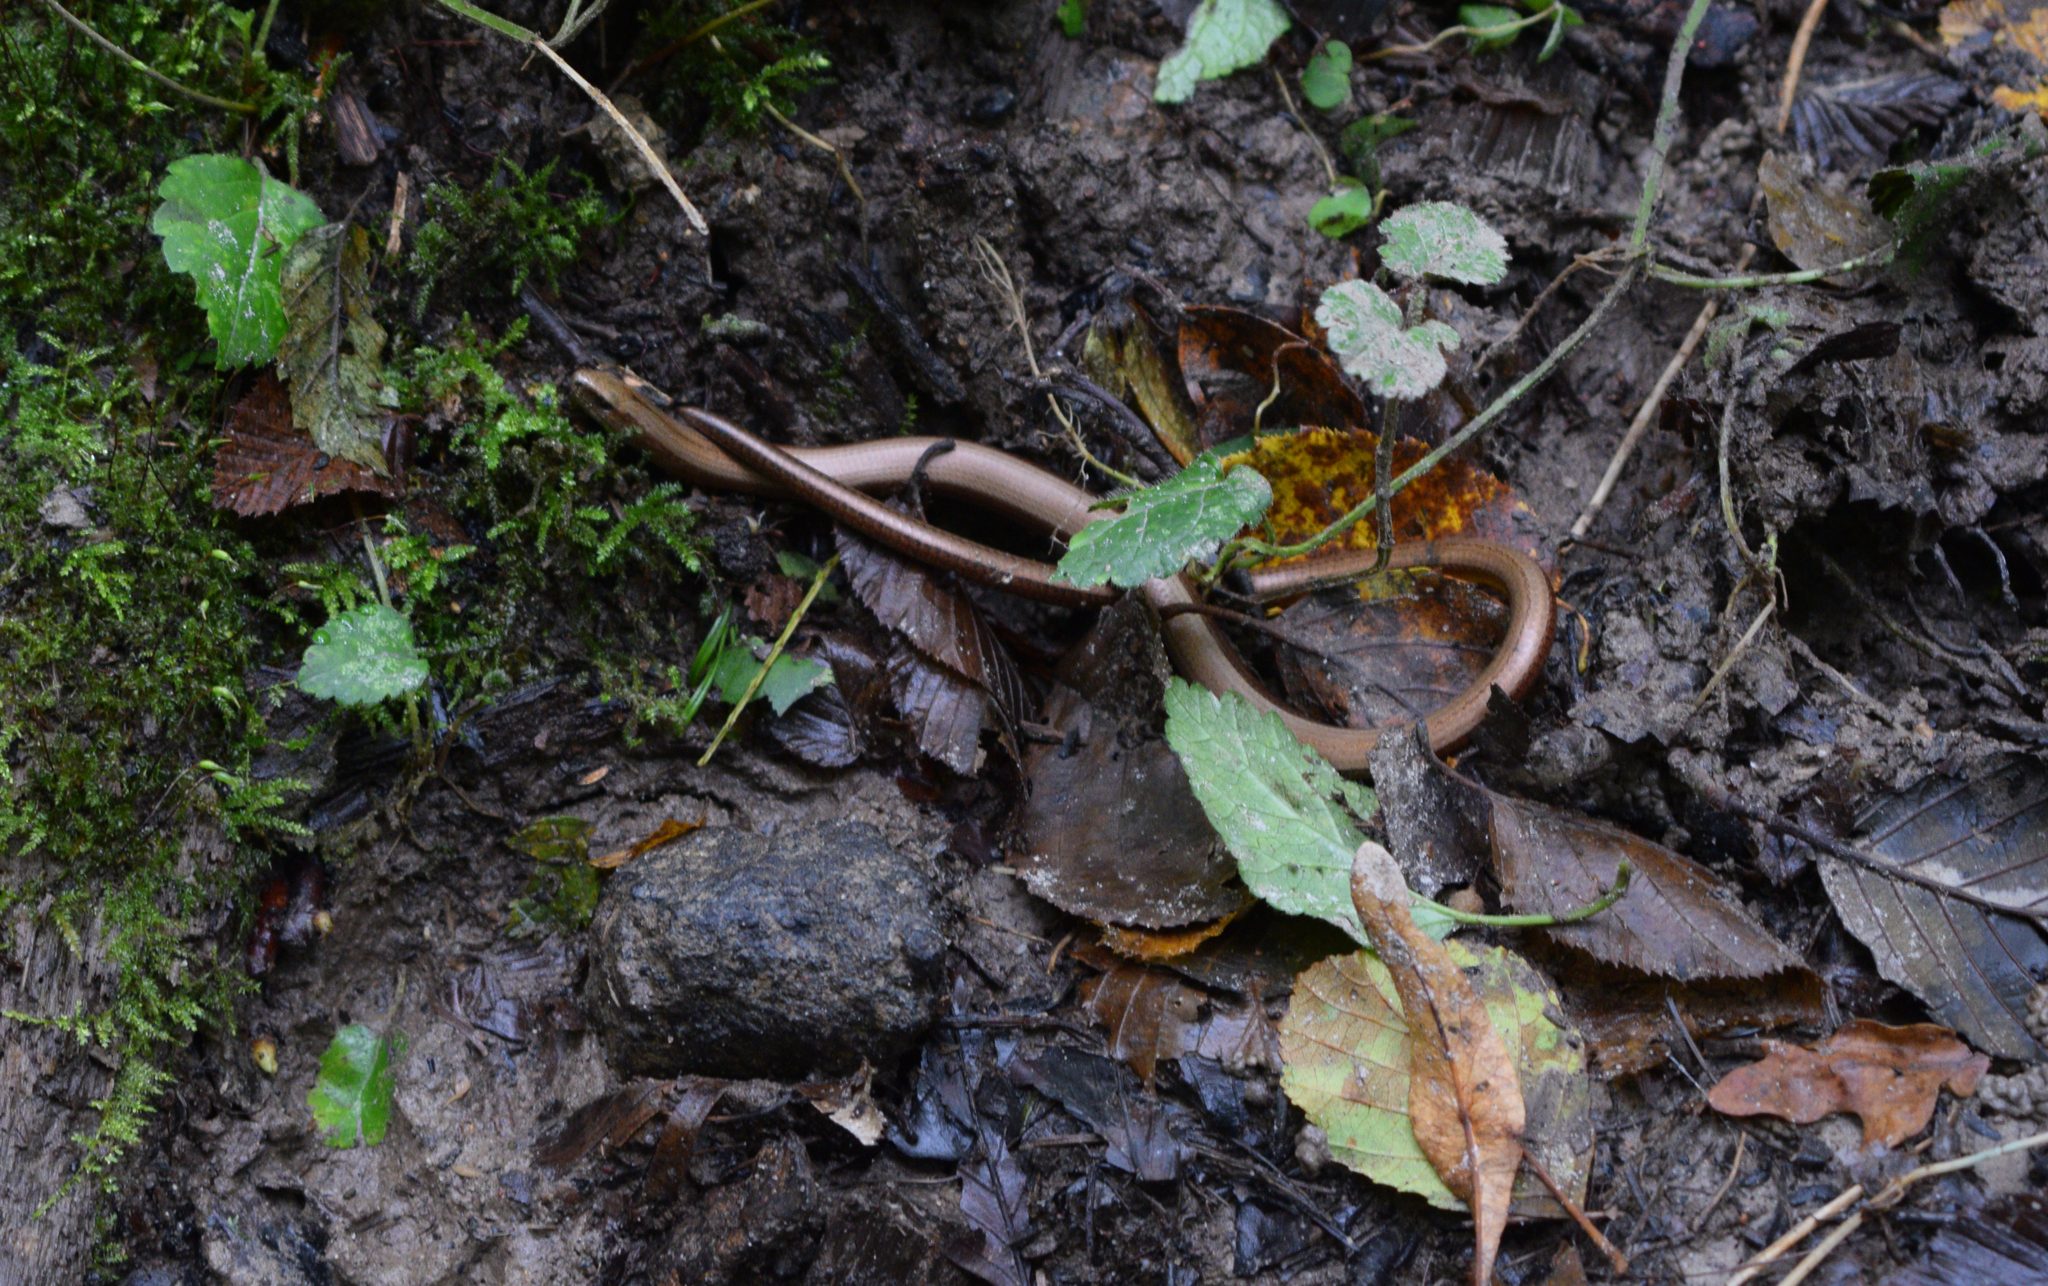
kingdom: Animalia
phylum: Chordata
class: Squamata
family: Anguidae
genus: Anguis
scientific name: Anguis fragilis
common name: Slow worm
